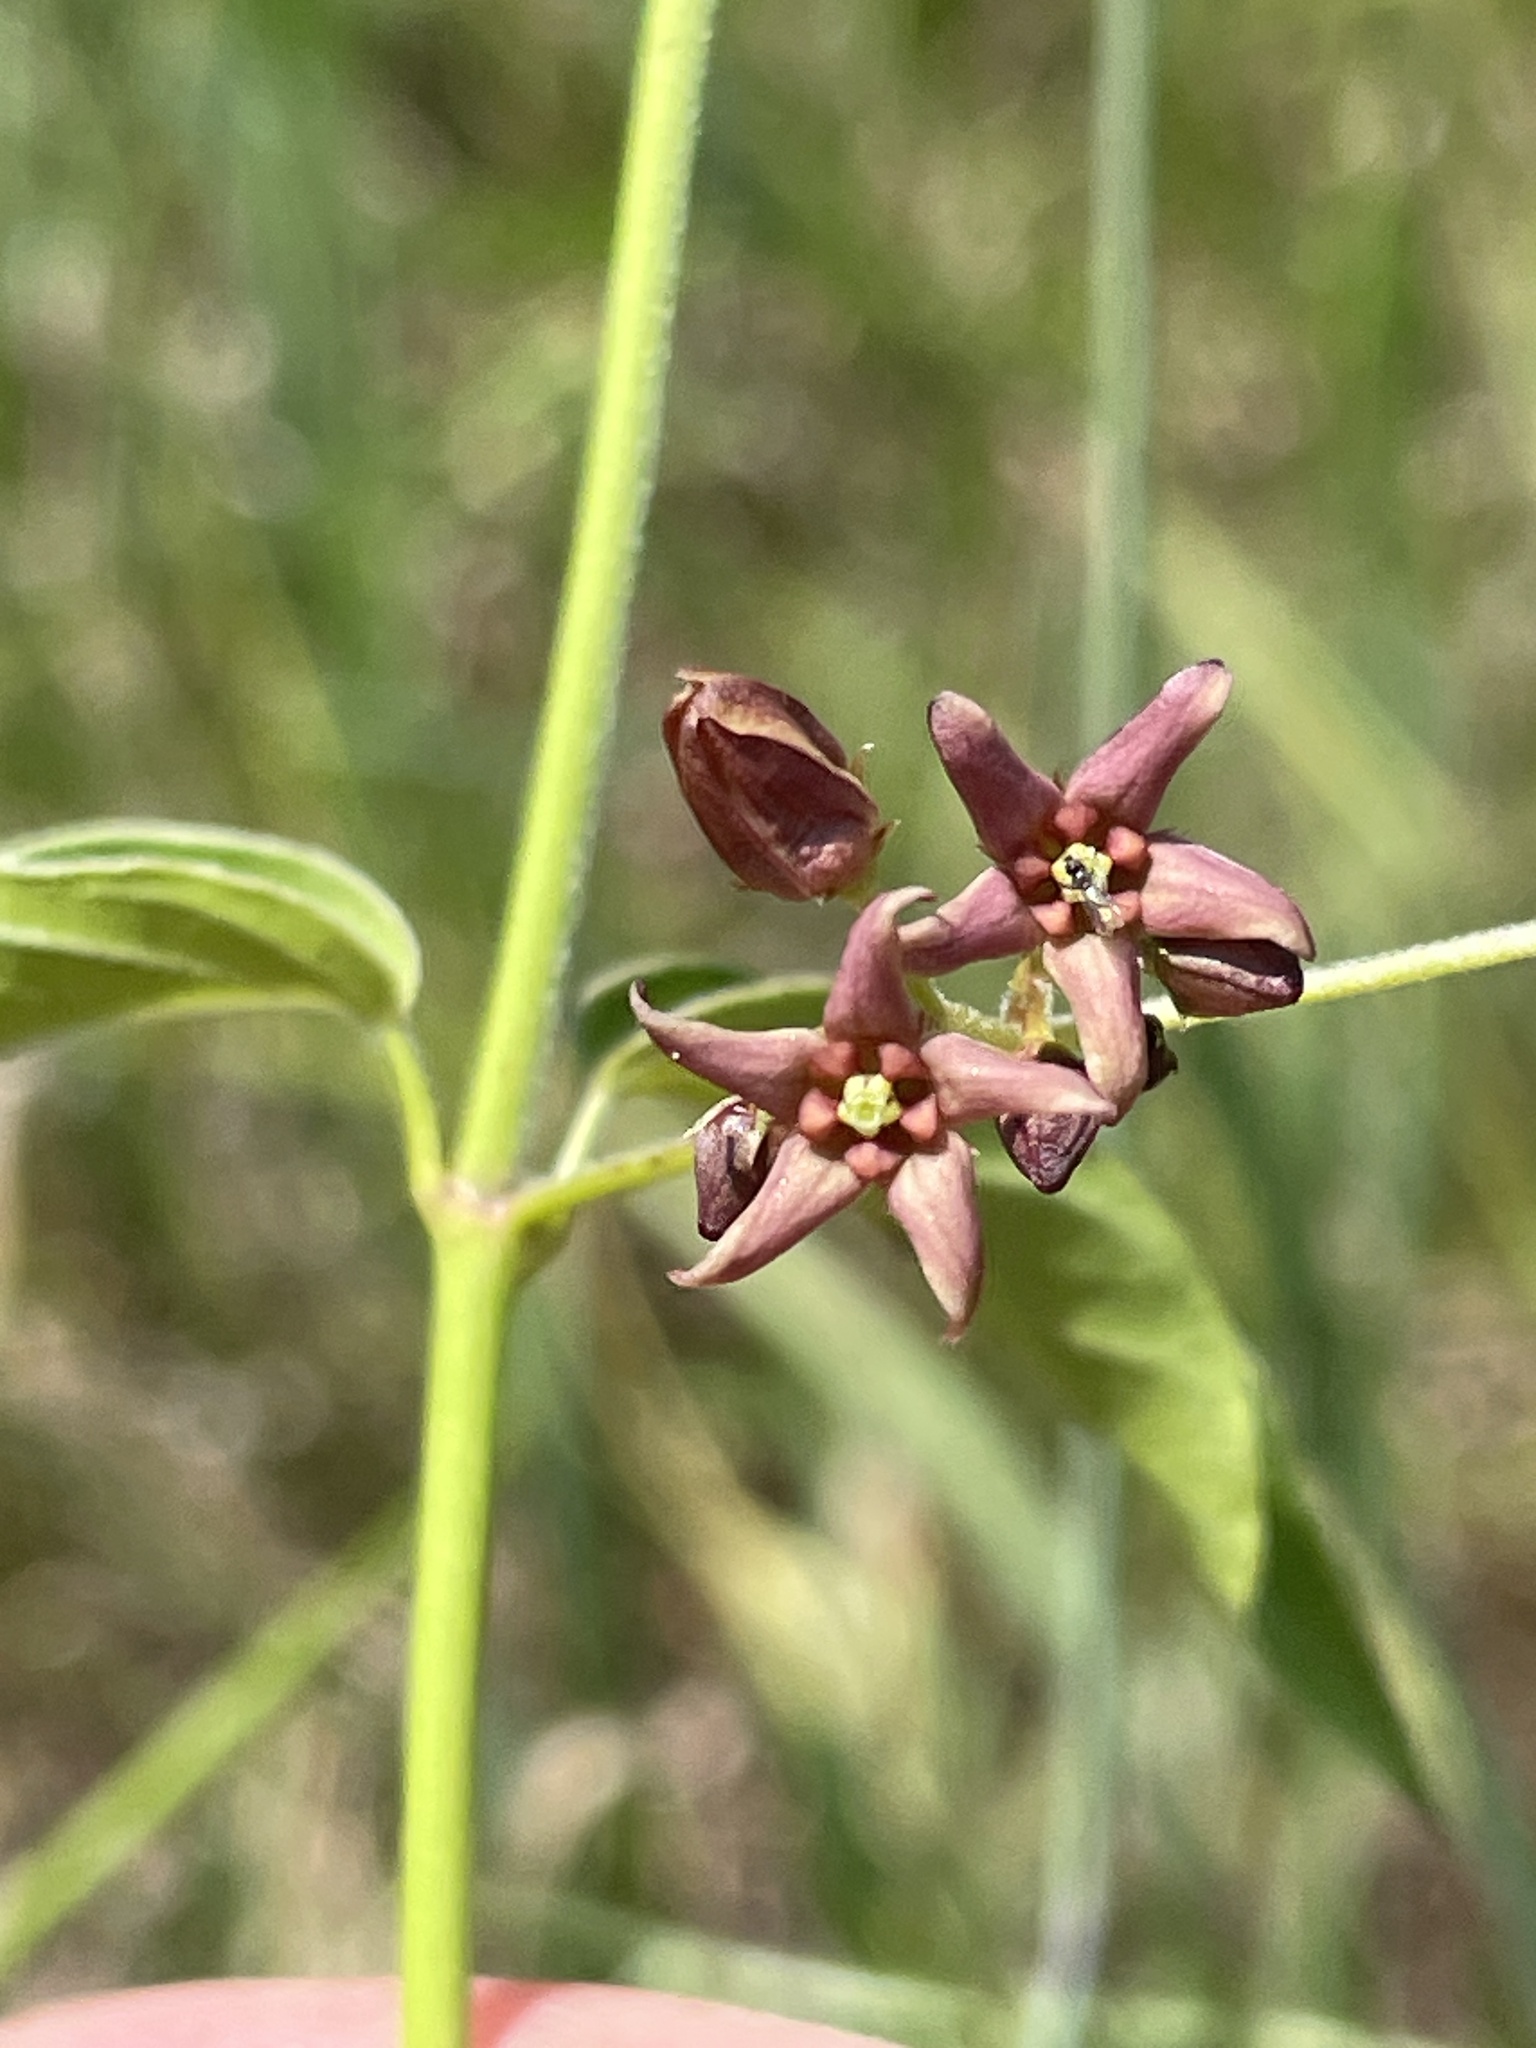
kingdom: Plantae
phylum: Tracheophyta
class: Magnoliopsida
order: Gentianales
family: Apocynaceae
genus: Vincetoxicum
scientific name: Vincetoxicum rossicum
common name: Dog-strangling vine
